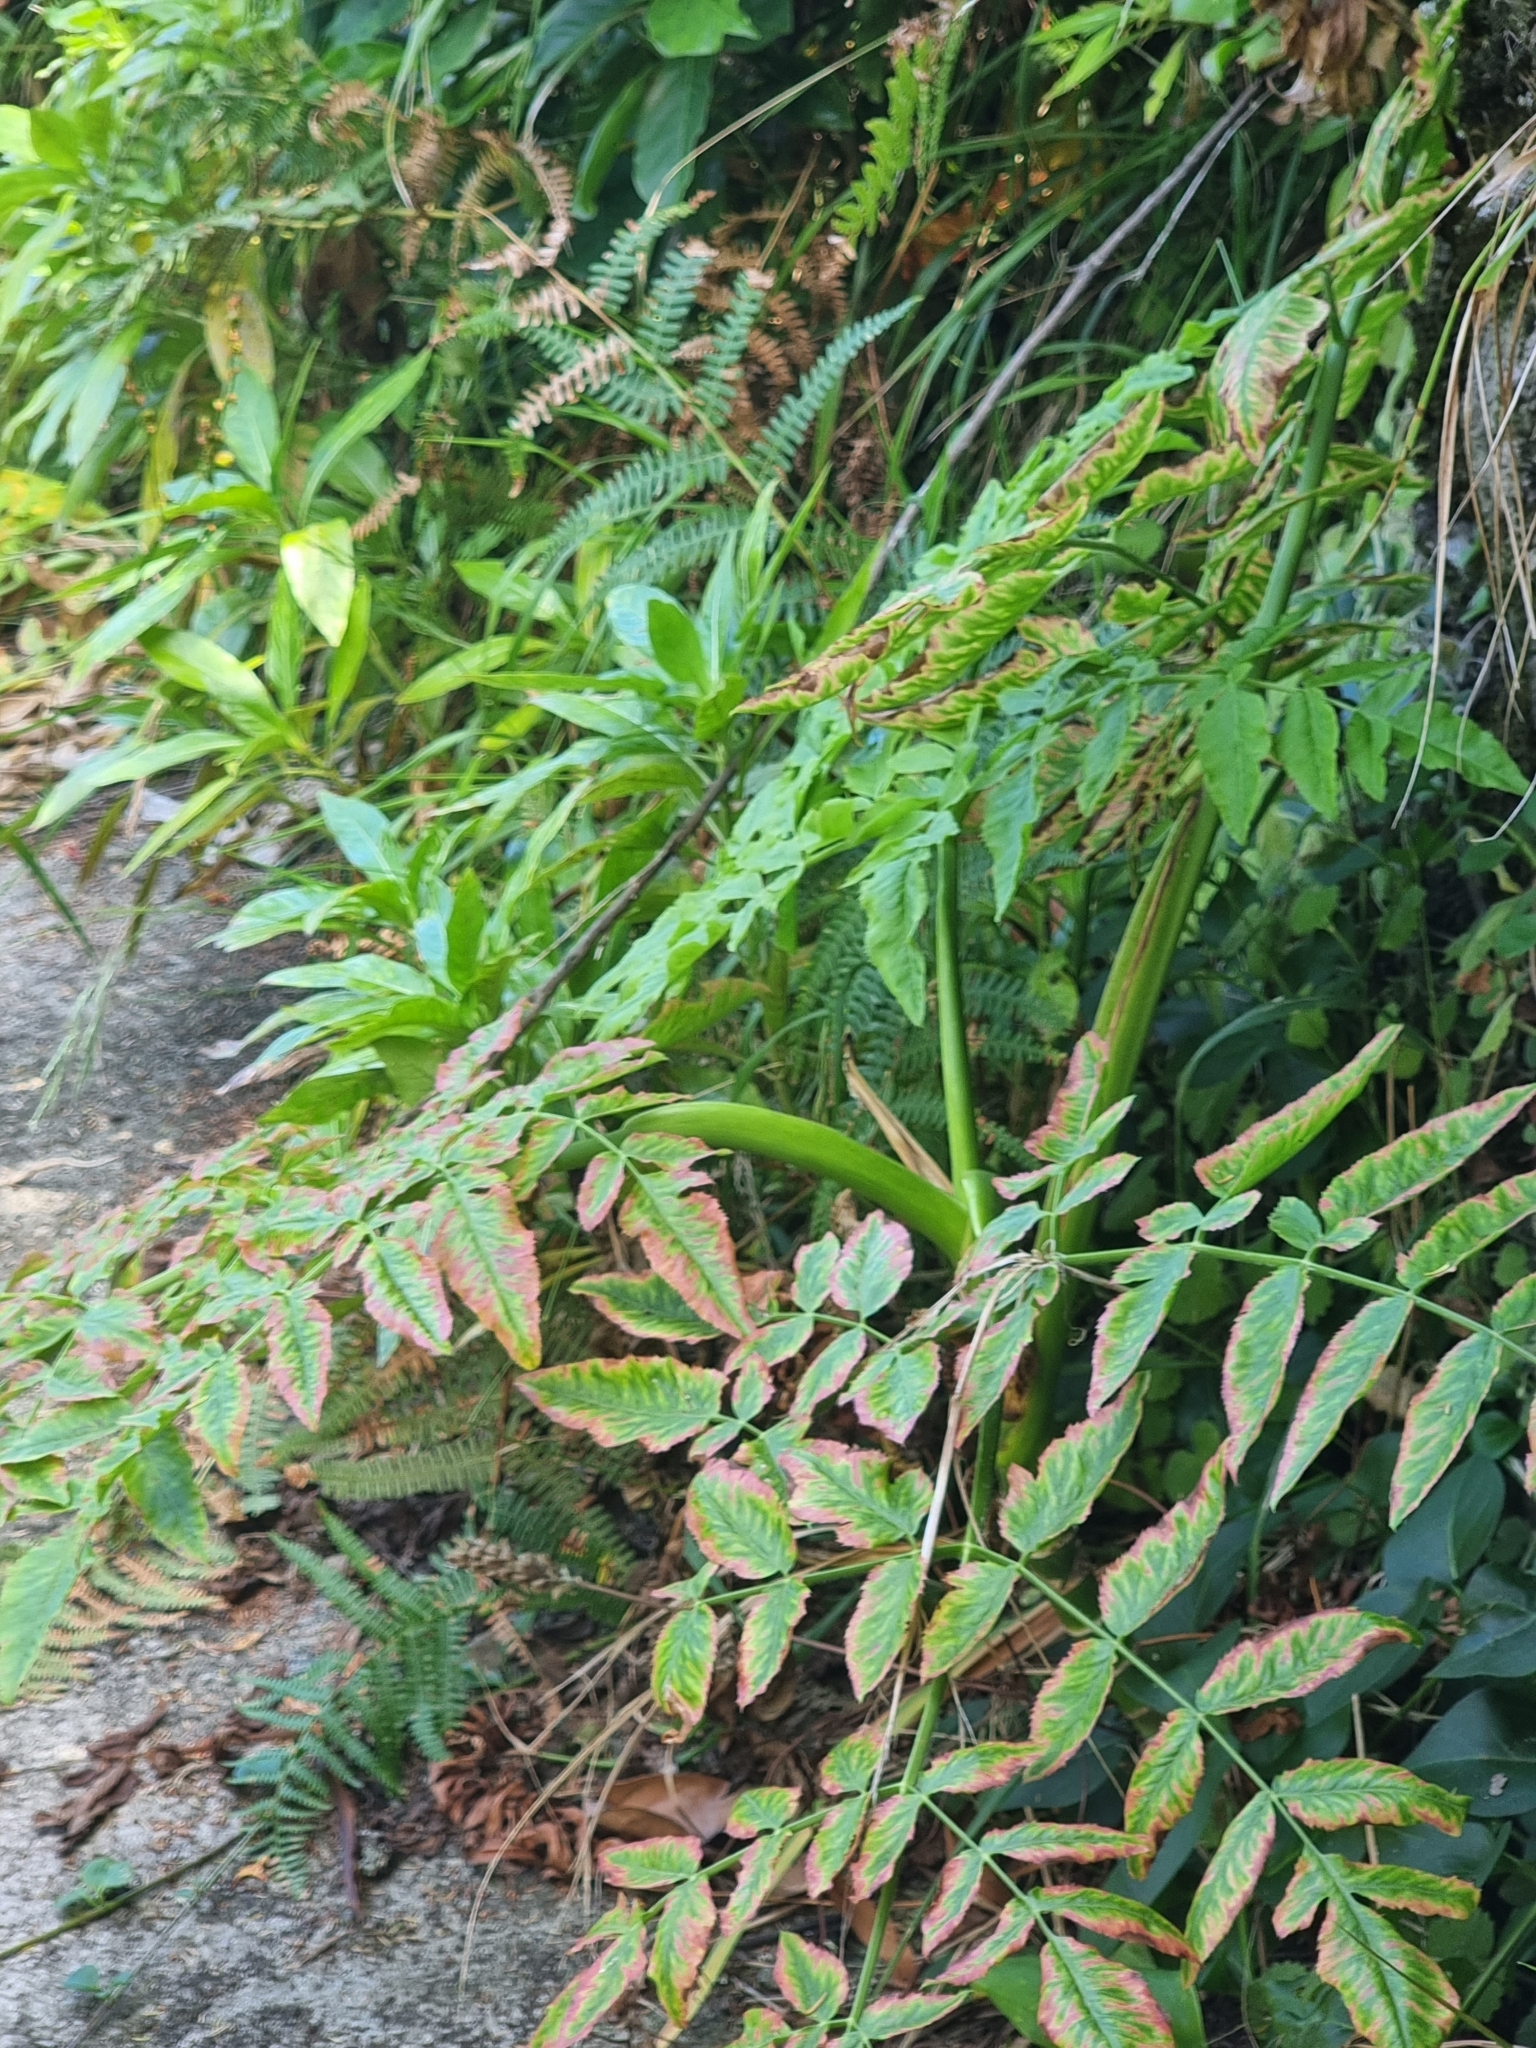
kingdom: Plantae
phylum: Tracheophyta
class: Magnoliopsida
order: Apiales
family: Apiaceae
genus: Daucus
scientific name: Daucus decipiens
